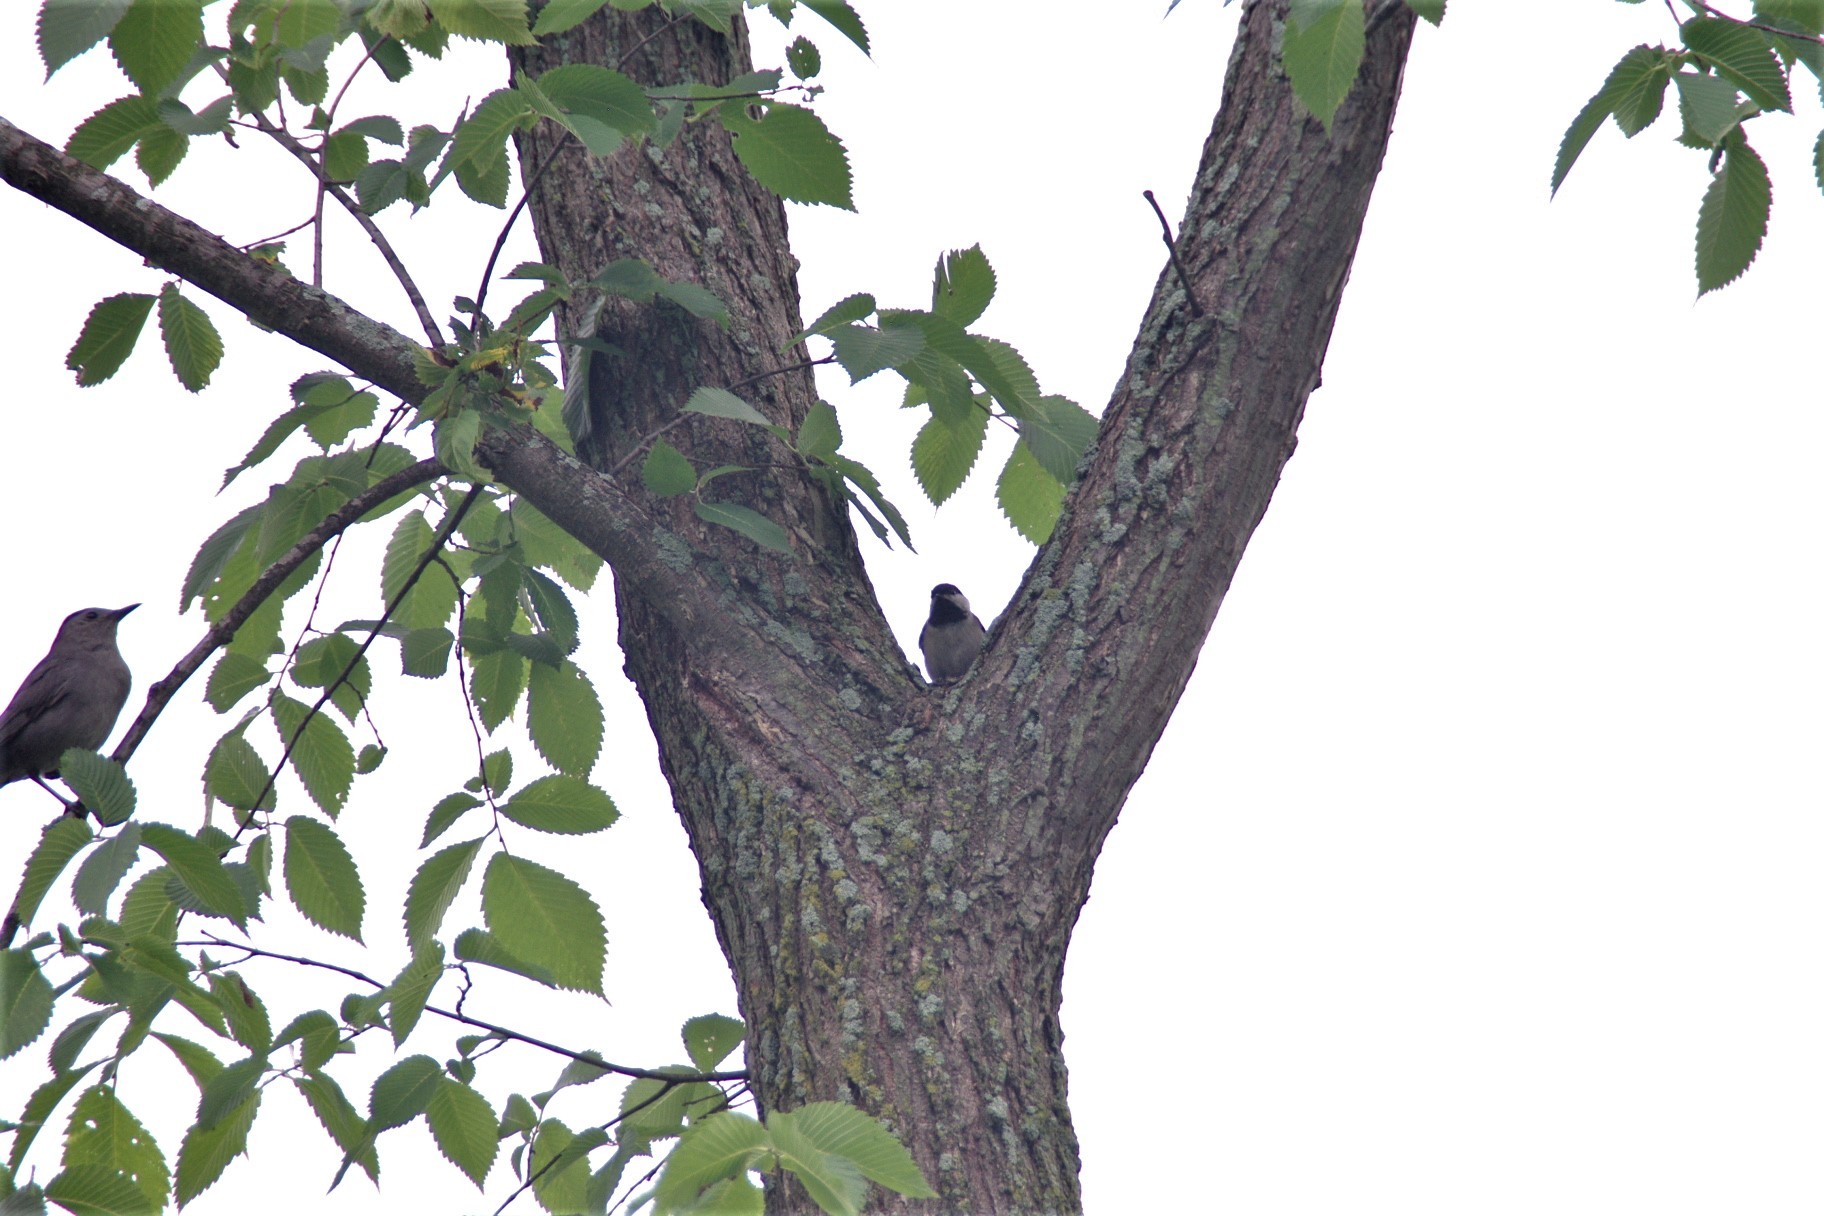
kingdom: Animalia
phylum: Chordata
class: Aves
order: Passeriformes
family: Paridae
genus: Poecile
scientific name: Poecile atricapillus
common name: Black-capped chickadee
